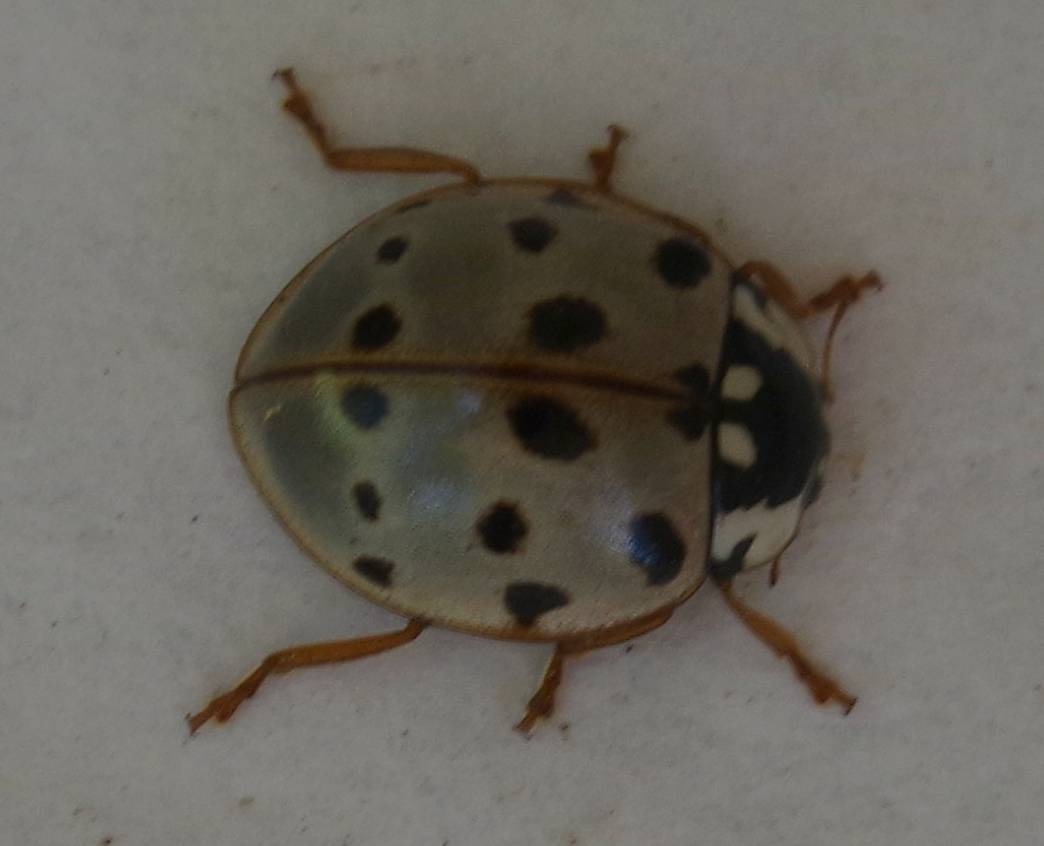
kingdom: Animalia
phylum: Arthropoda
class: Insecta
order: Coleoptera
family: Coccinellidae
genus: Anatis
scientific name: Anatis labiculata
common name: Fifteen-spotted lady beetle
